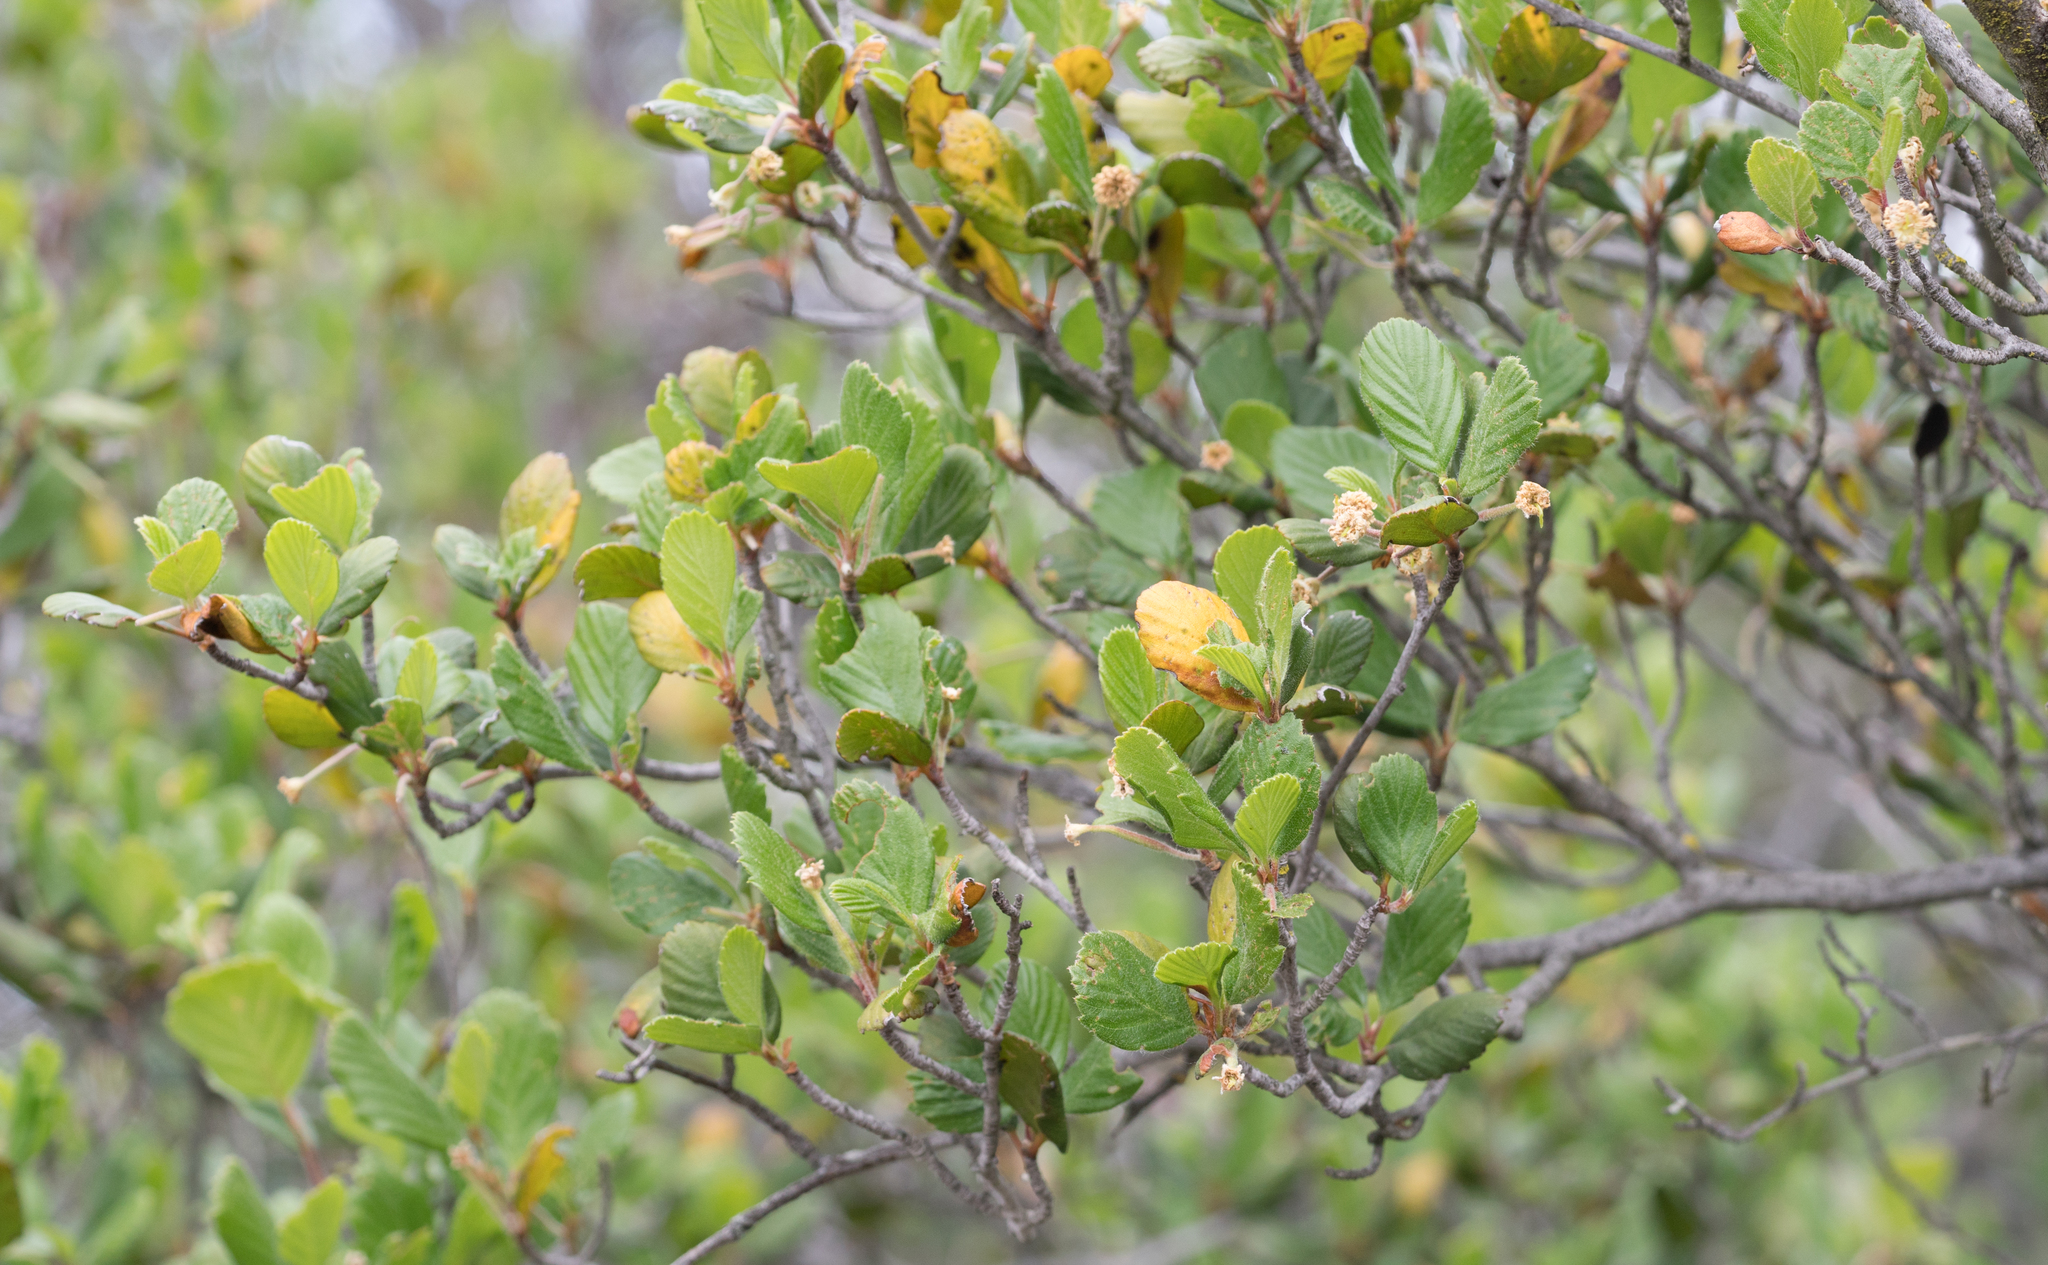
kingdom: Plantae
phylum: Tracheophyta
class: Magnoliopsida
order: Rosales
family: Rosaceae
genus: Cercocarpus
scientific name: Cercocarpus betuloides
